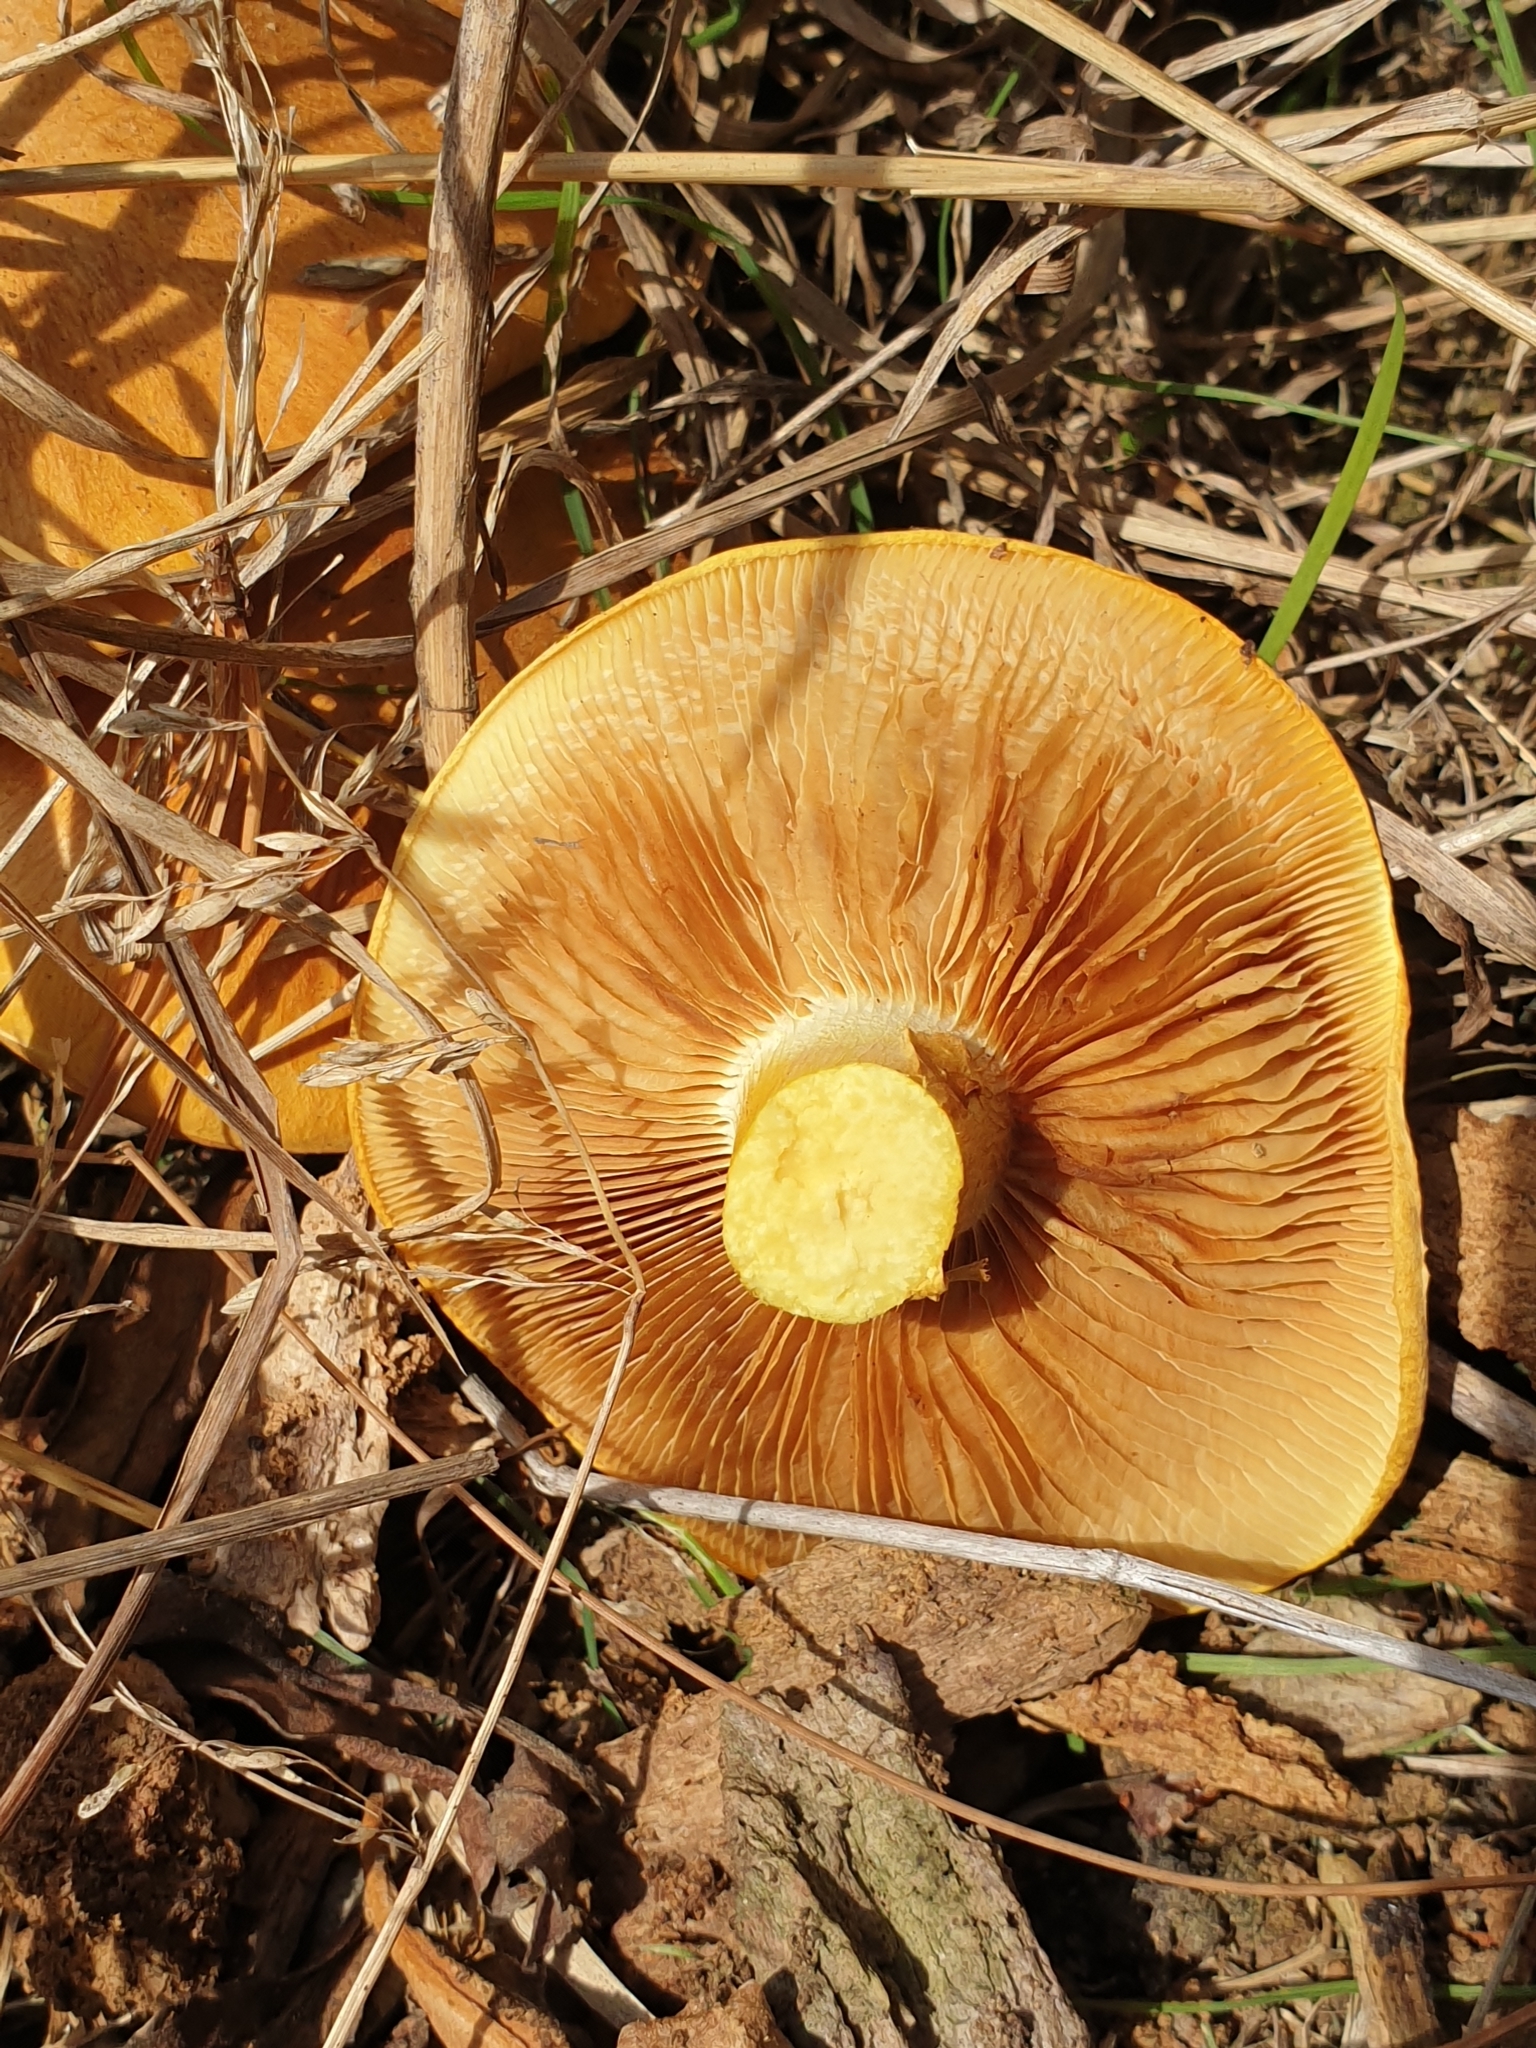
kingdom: Fungi
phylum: Basidiomycota
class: Agaricomycetes
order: Agaricales
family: Hymenogastraceae
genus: Gymnopilus
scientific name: Gymnopilus junonius
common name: Spectacular rustgill
